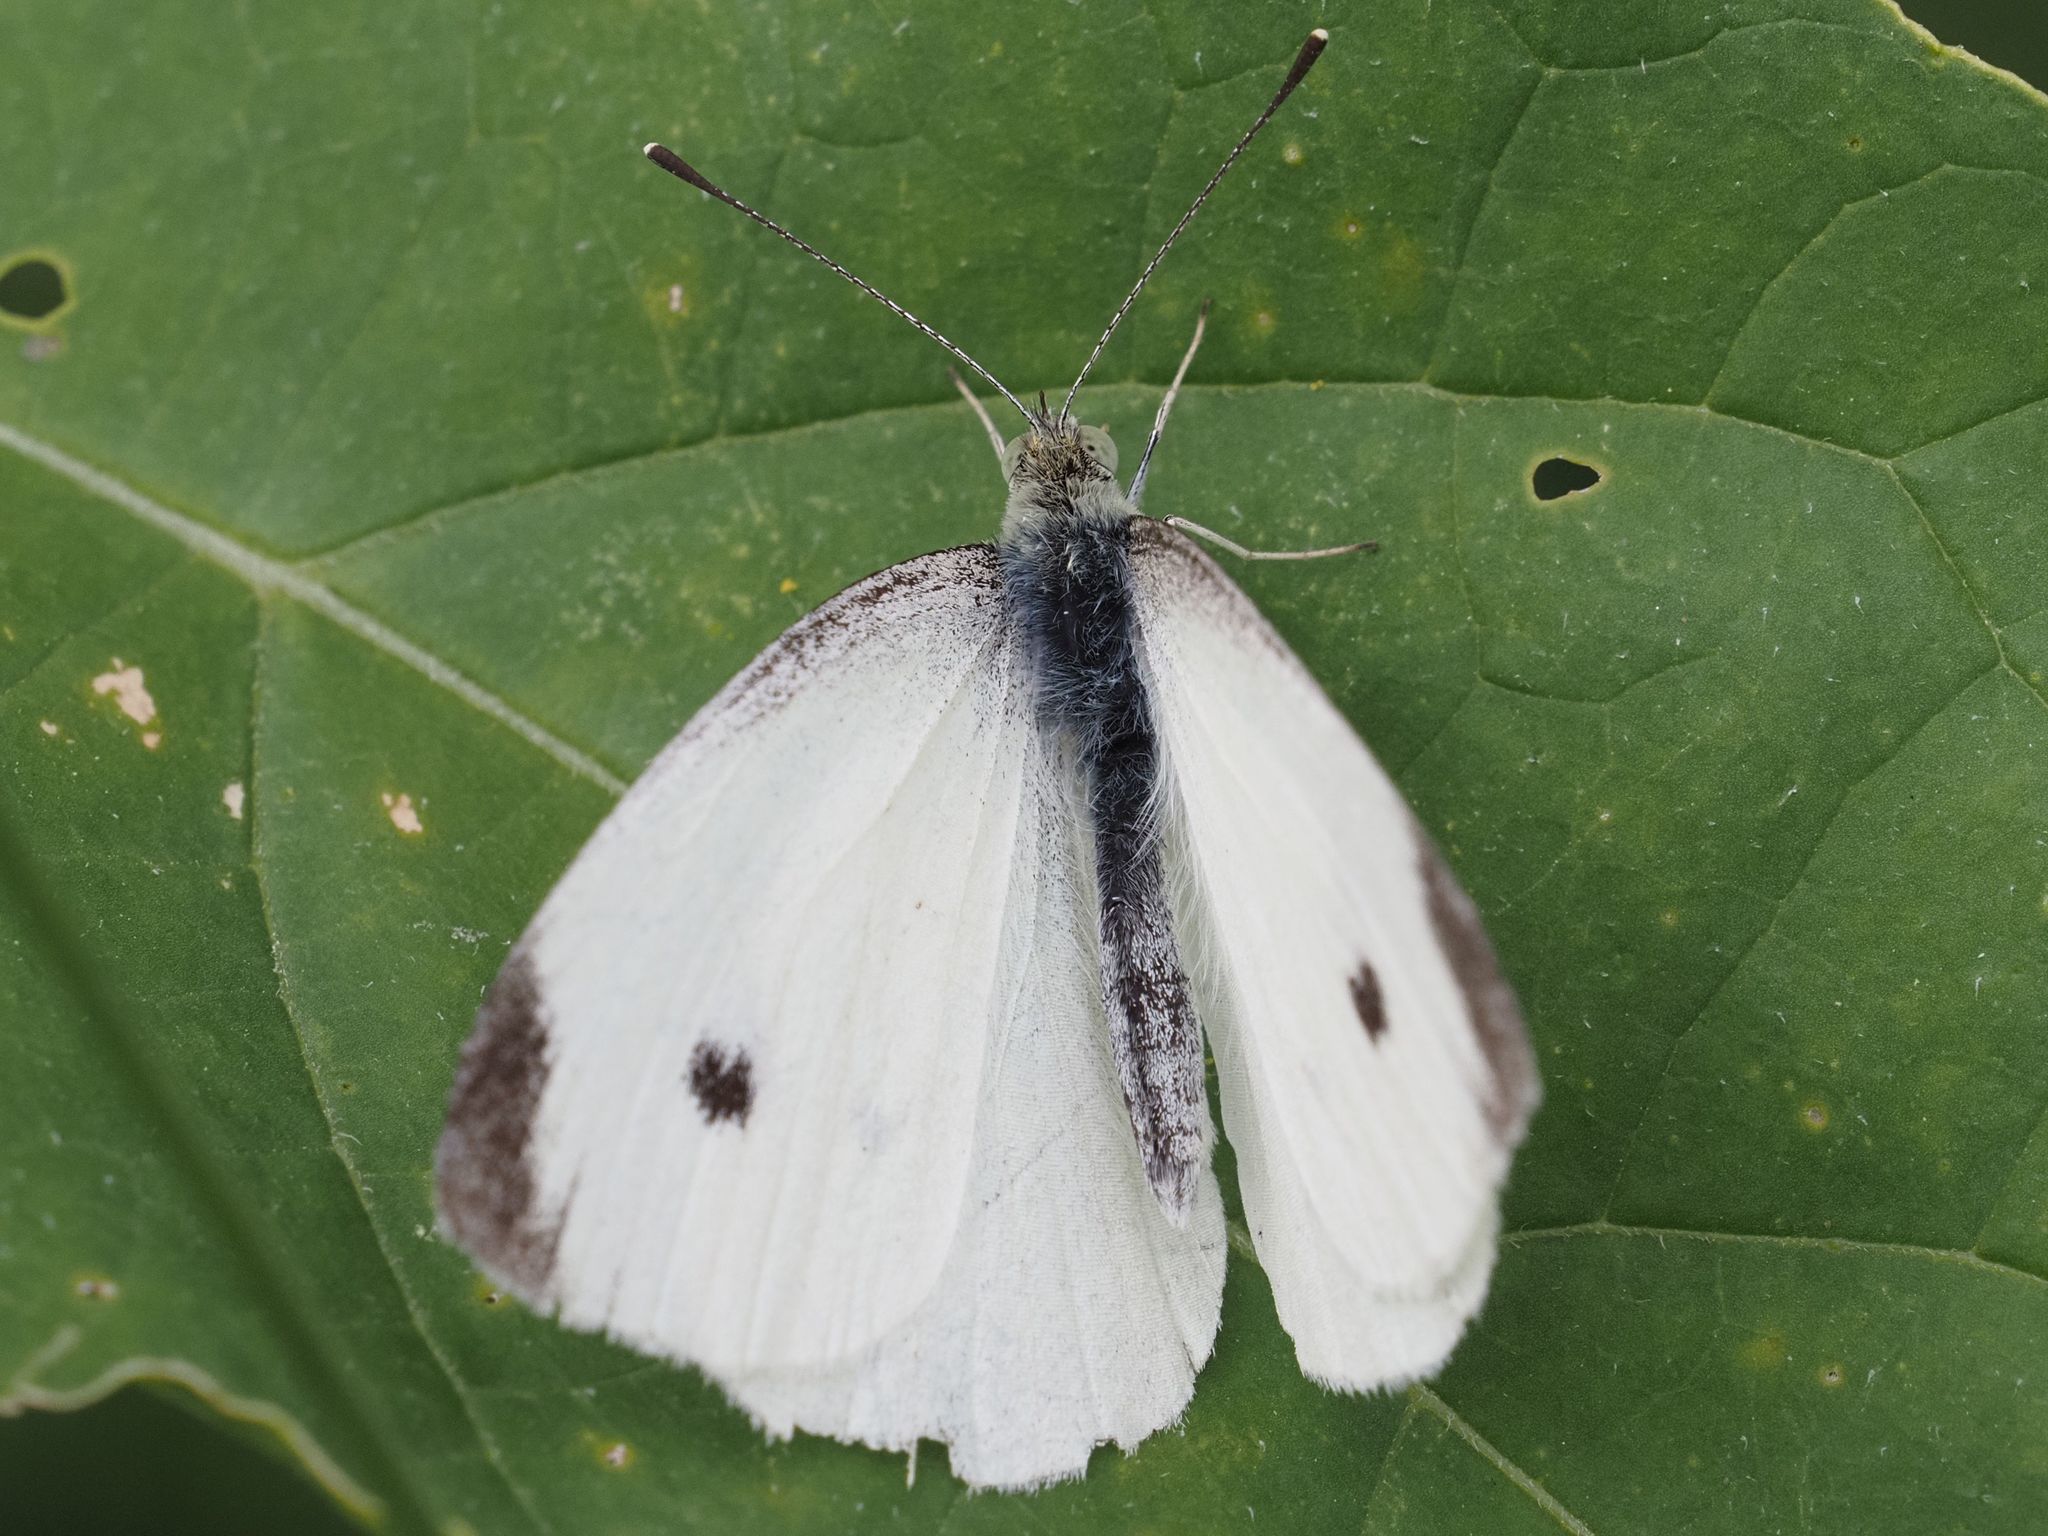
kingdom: Animalia
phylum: Arthropoda
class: Insecta
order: Lepidoptera
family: Pieridae
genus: Pieris
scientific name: Pieris rapae
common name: Small white
